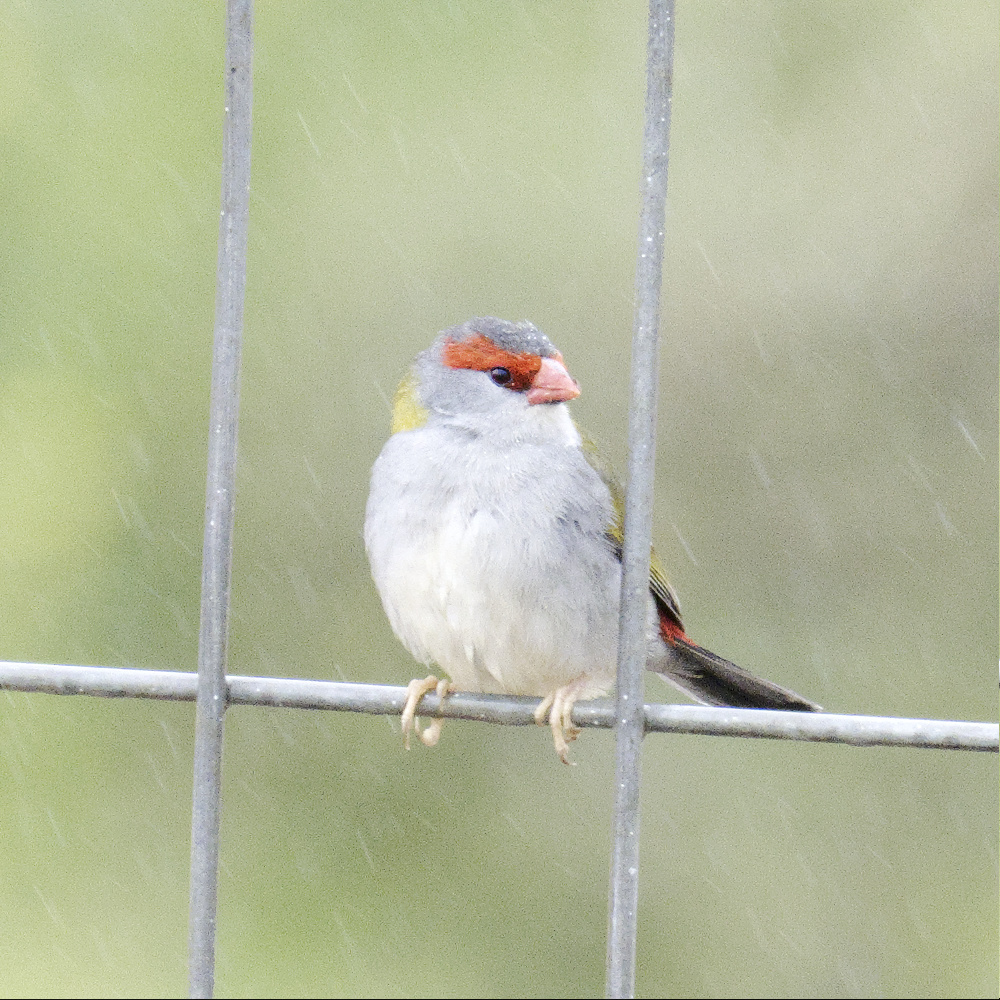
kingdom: Animalia
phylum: Chordata
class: Aves
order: Passeriformes
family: Estrildidae
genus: Neochmia
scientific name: Neochmia temporalis
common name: Red-browed finch
